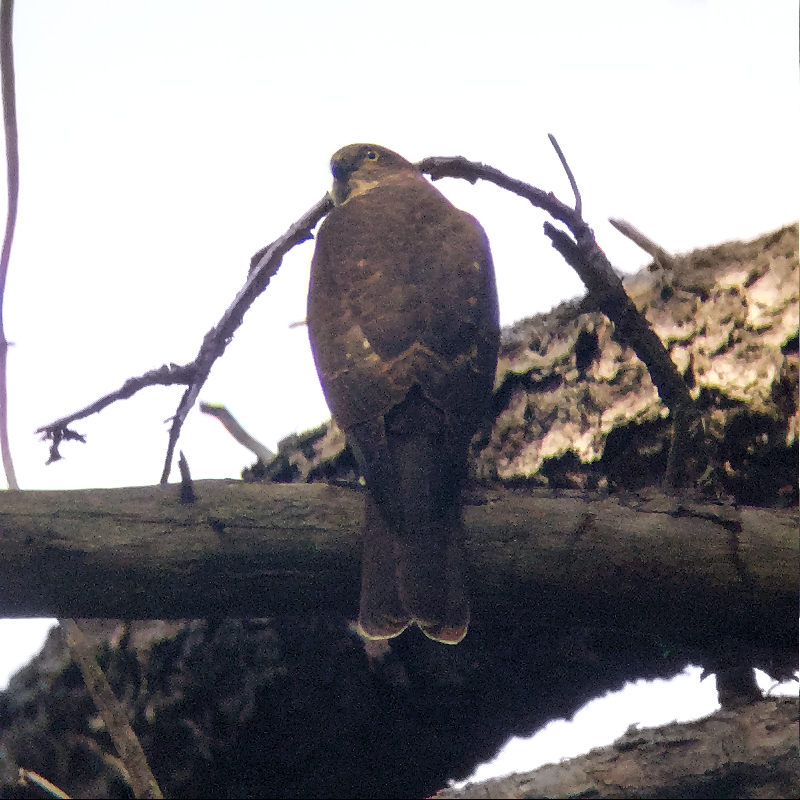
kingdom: Animalia
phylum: Chordata
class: Aves
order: Accipitriformes
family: Accipitridae
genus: Accipiter
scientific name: Accipiter cirrocephalus
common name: Collared sparrowhawk
